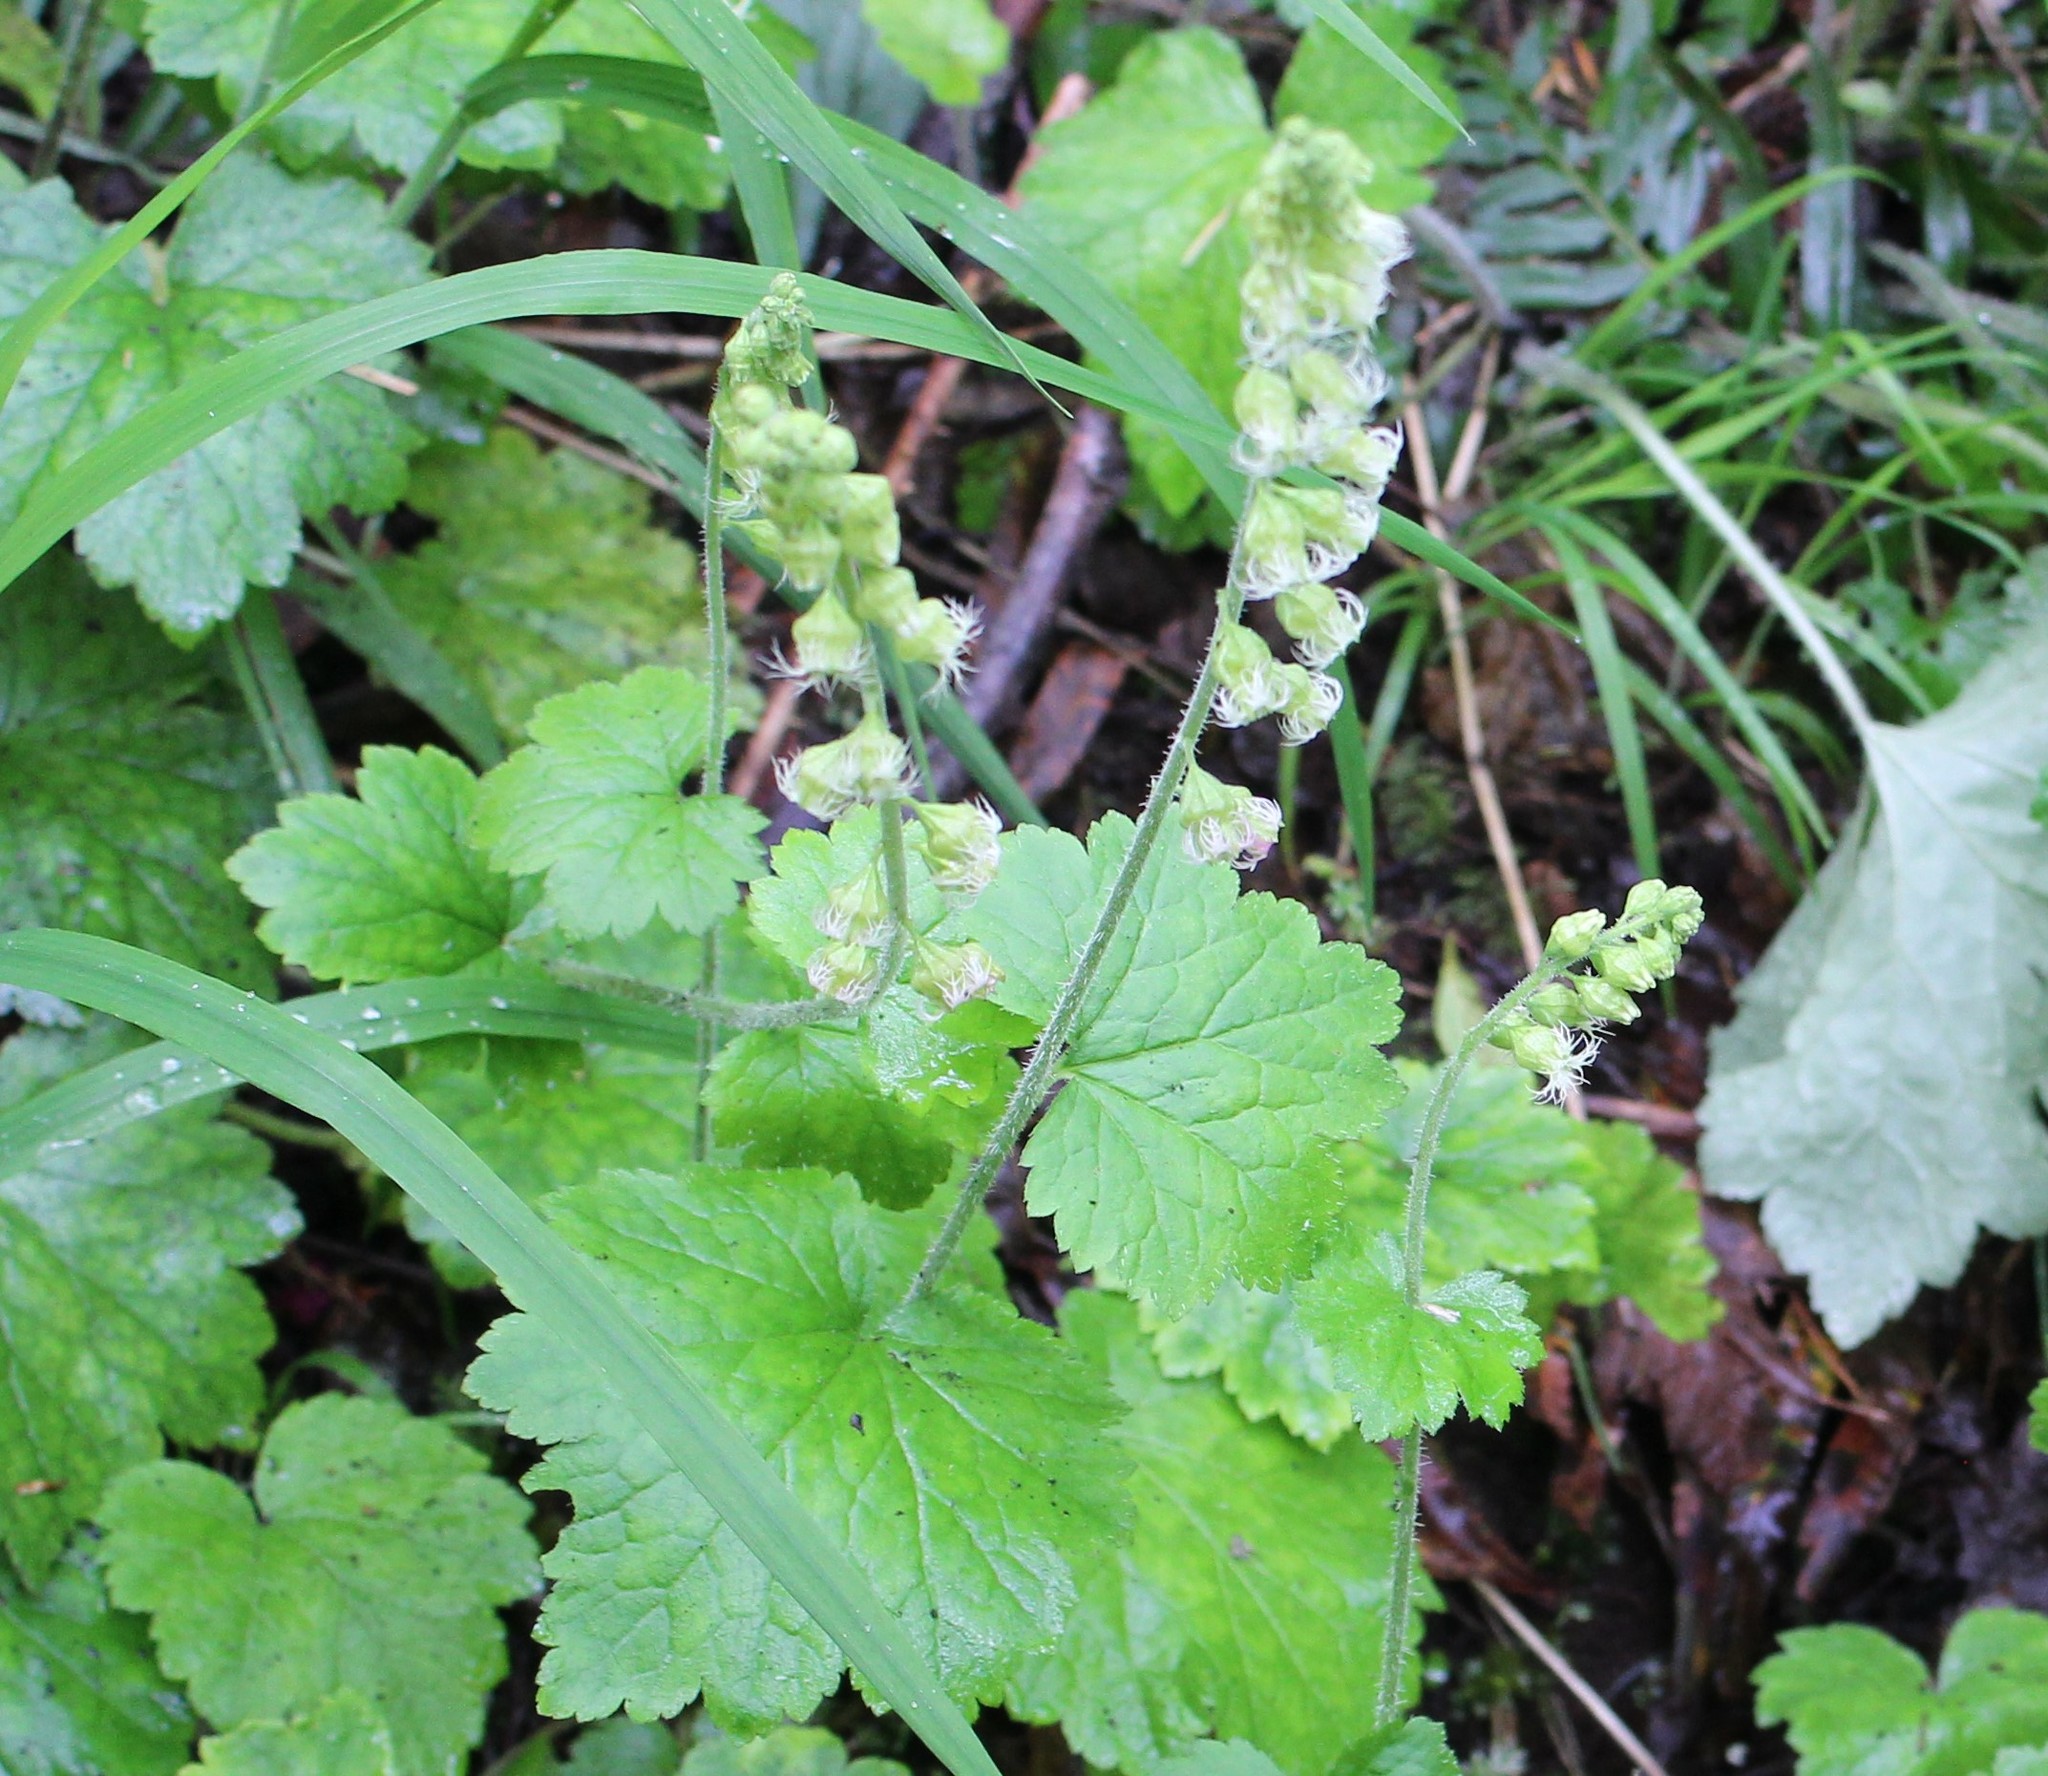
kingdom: Plantae
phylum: Tracheophyta
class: Magnoliopsida
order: Saxifragales
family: Saxifragaceae
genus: Tellima
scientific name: Tellima grandiflora
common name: Fringecups
